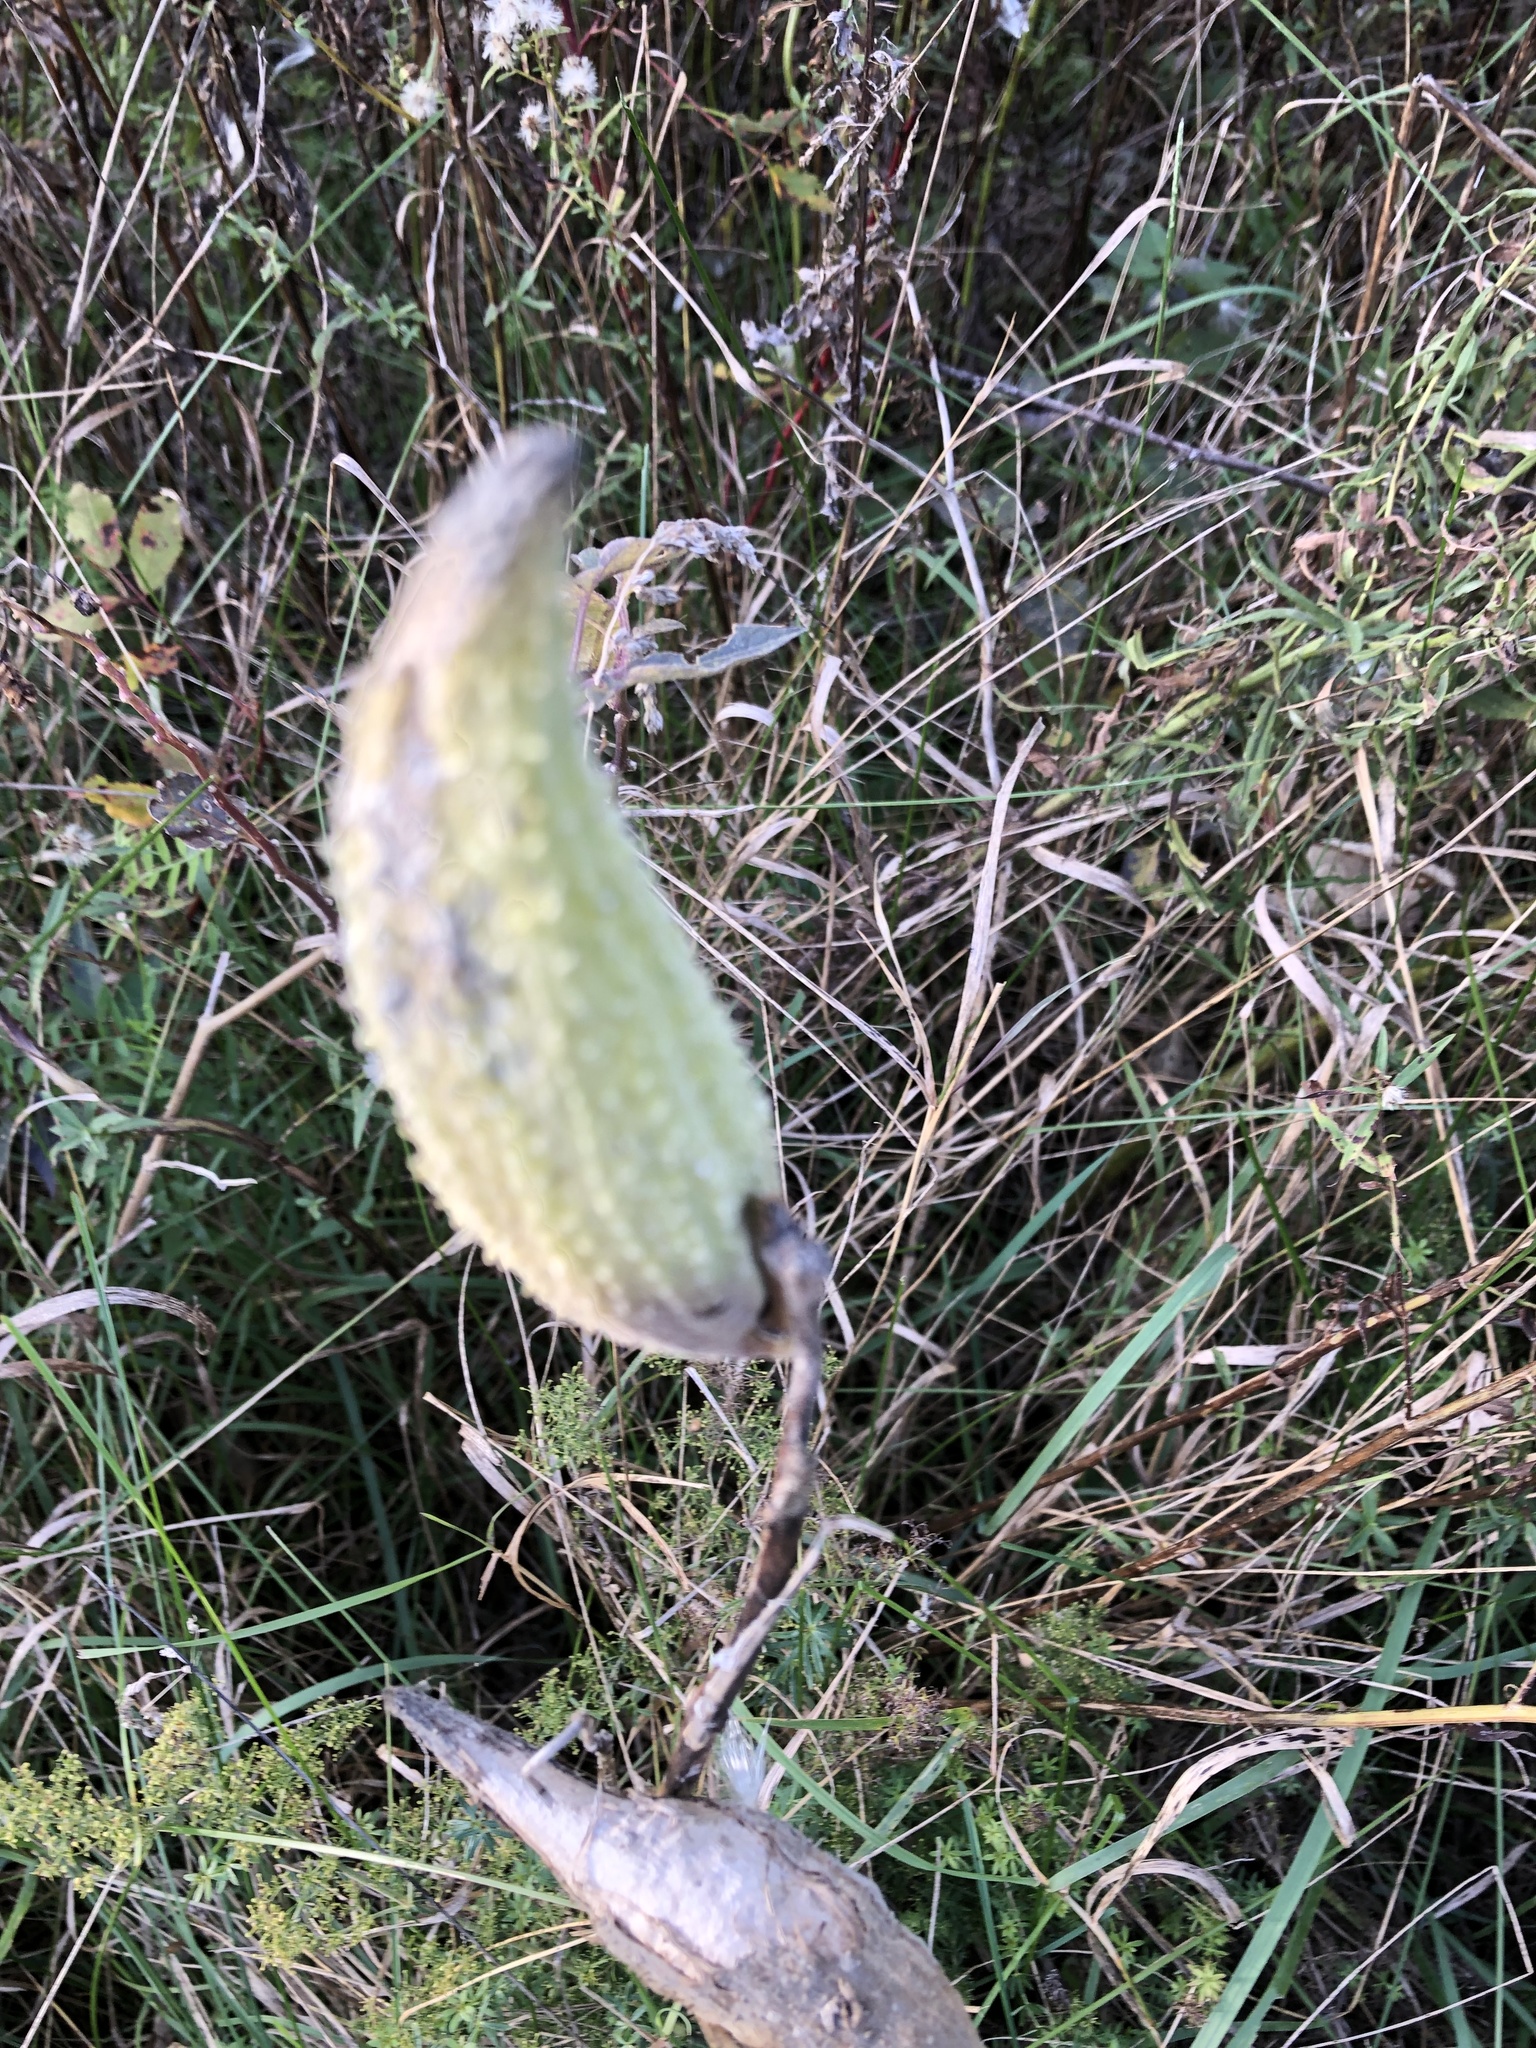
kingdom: Plantae
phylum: Tracheophyta
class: Magnoliopsida
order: Gentianales
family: Apocynaceae
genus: Asclepias
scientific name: Asclepias syriaca
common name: Common milkweed
